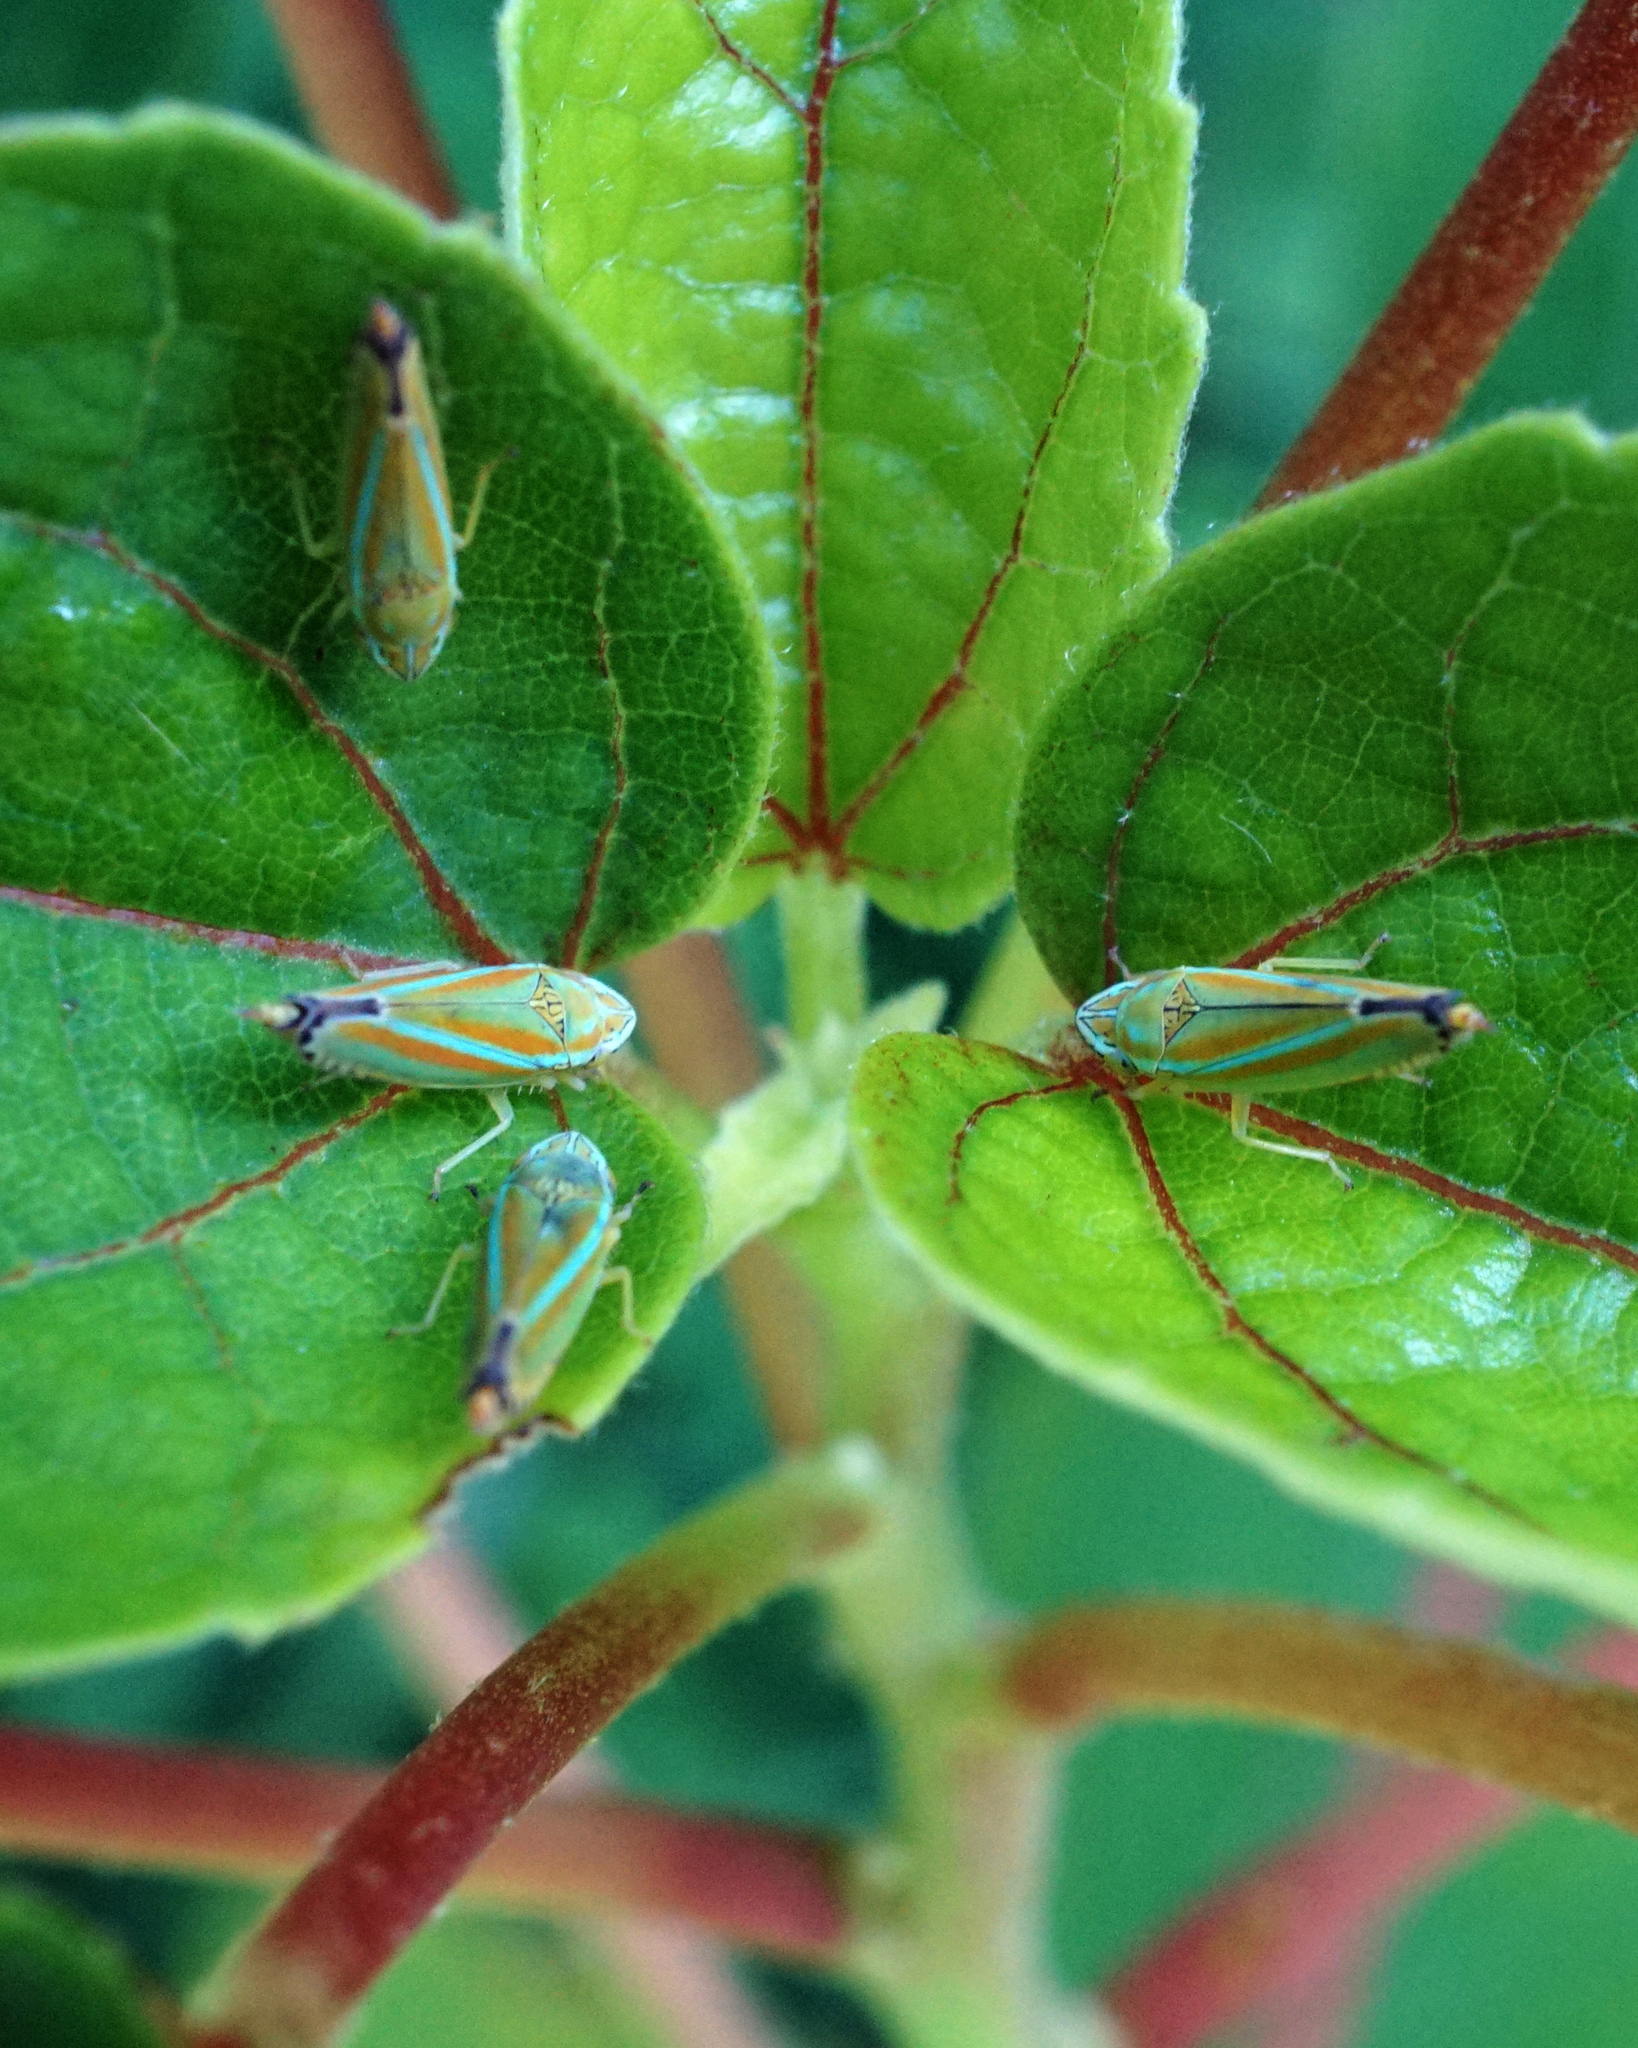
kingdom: Animalia
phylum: Arthropoda
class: Insecta
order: Hemiptera
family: Cicadellidae
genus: Graphocephala
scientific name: Graphocephala versuta
